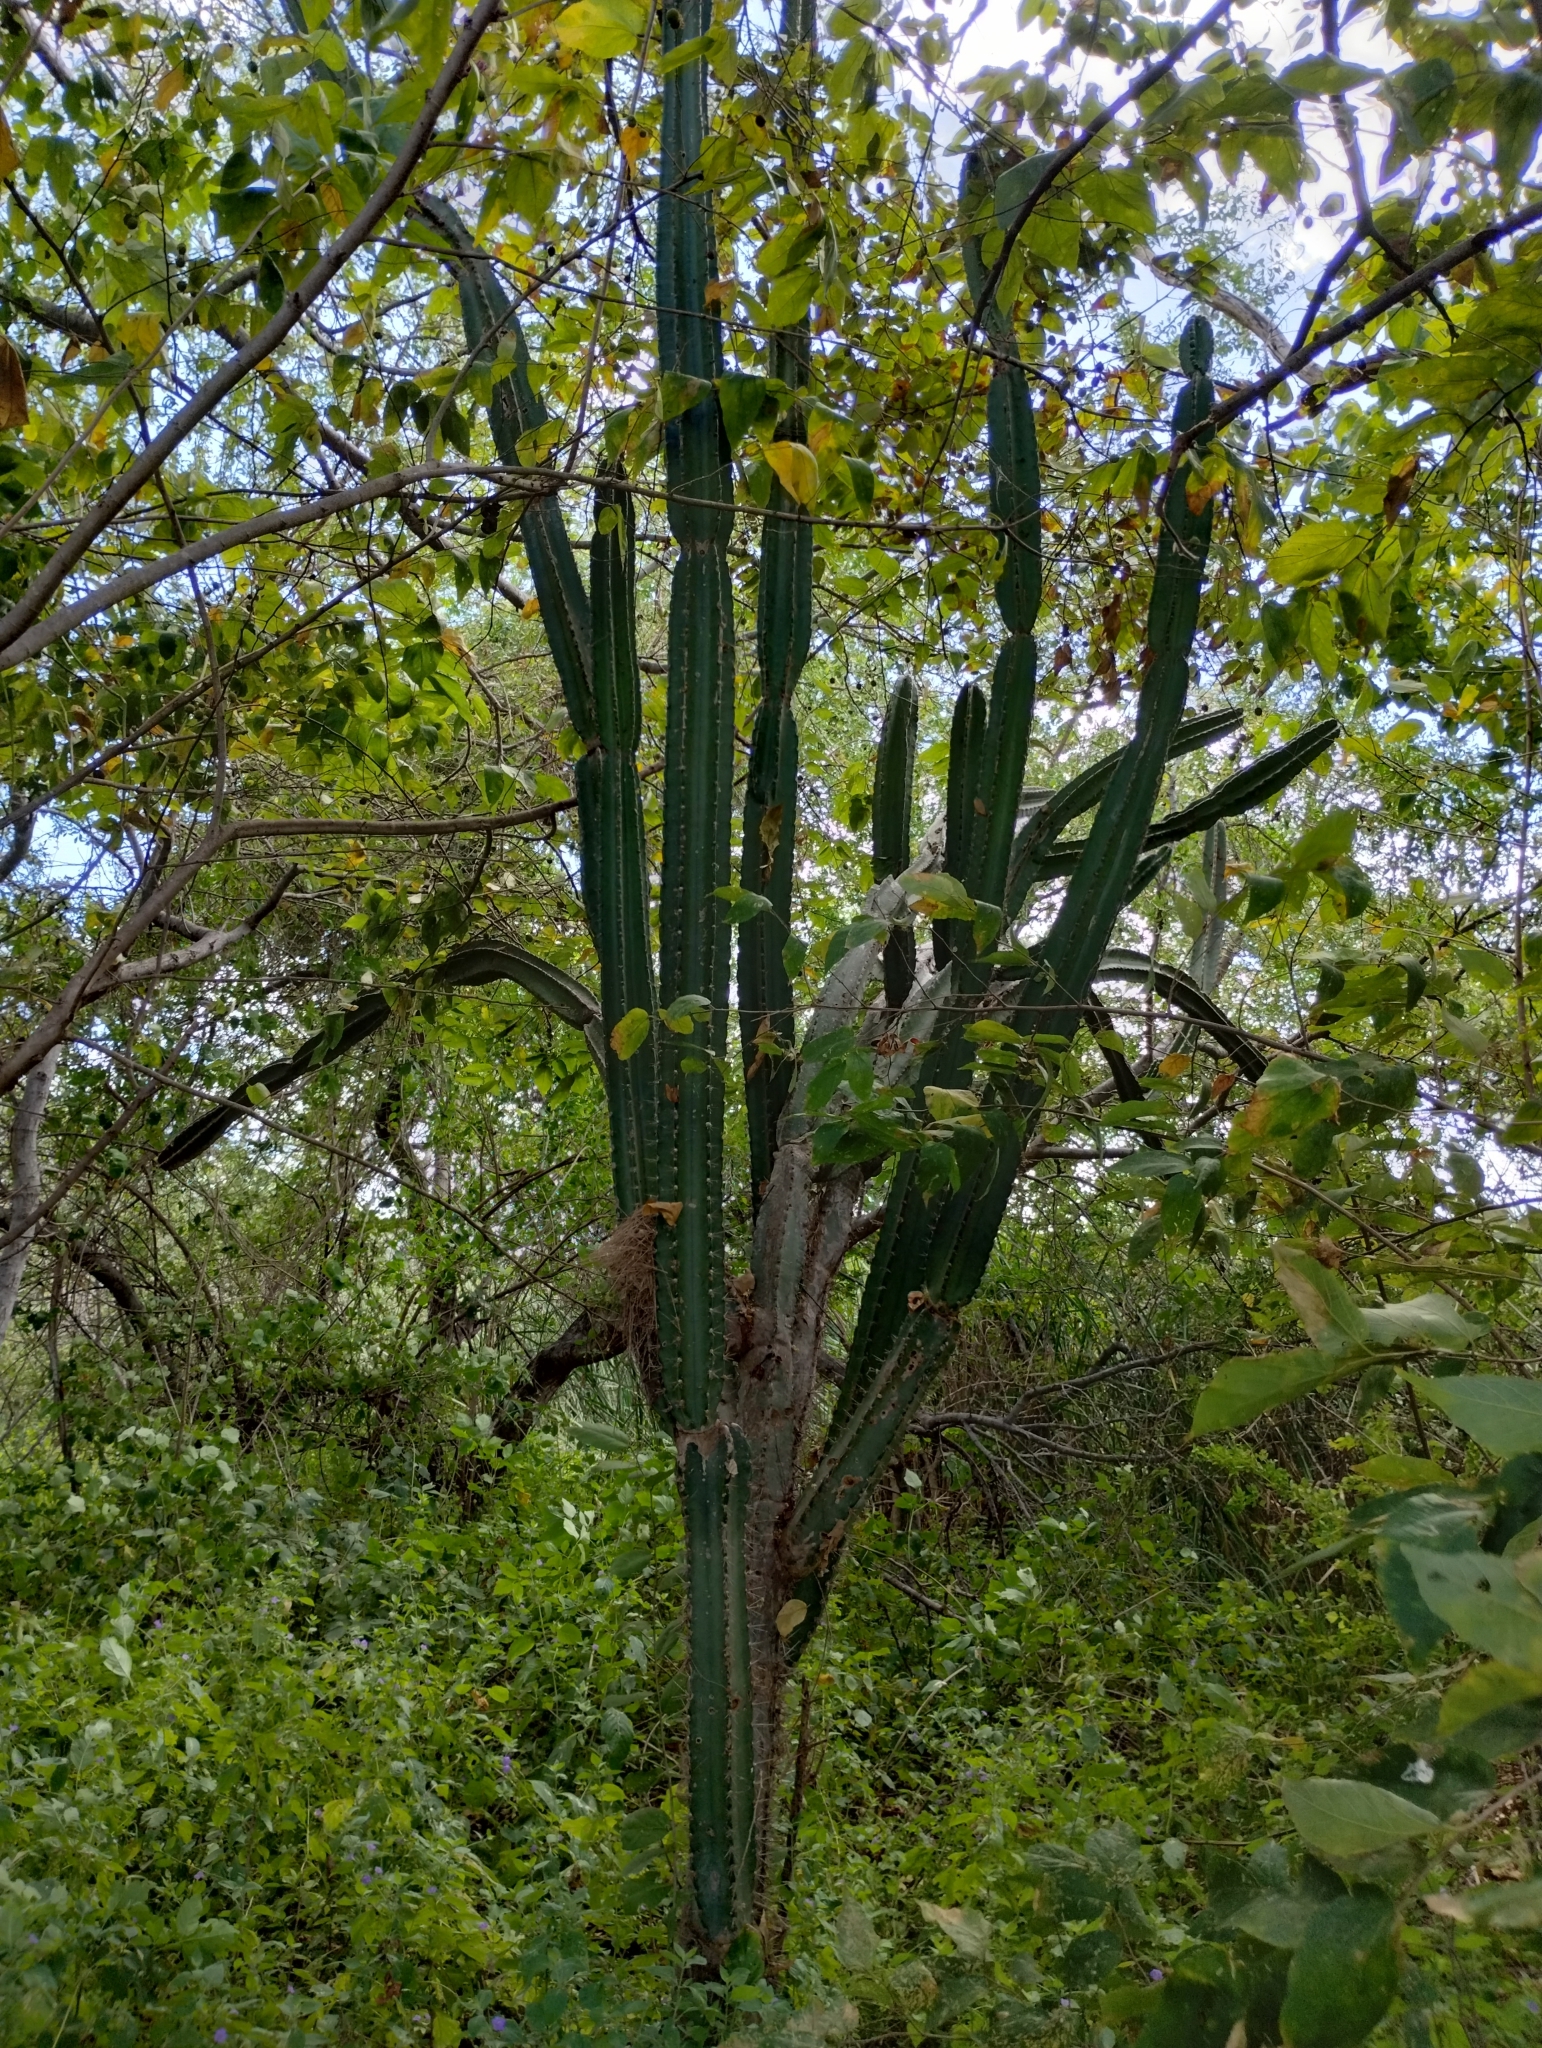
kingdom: Plantae
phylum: Tracheophyta
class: Magnoliopsida
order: Caryophyllales
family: Cactaceae
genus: Cereus
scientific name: Cereus jamacaru
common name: Queen-of-the-night
